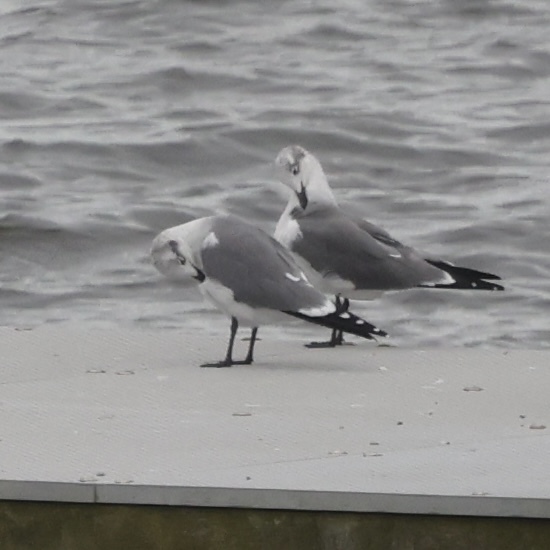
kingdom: Animalia
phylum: Chordata
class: Aves
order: Charadriiformes
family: Laridae
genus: Leucophaeus
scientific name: Leucophaeus atricilla
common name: Laughing gull
